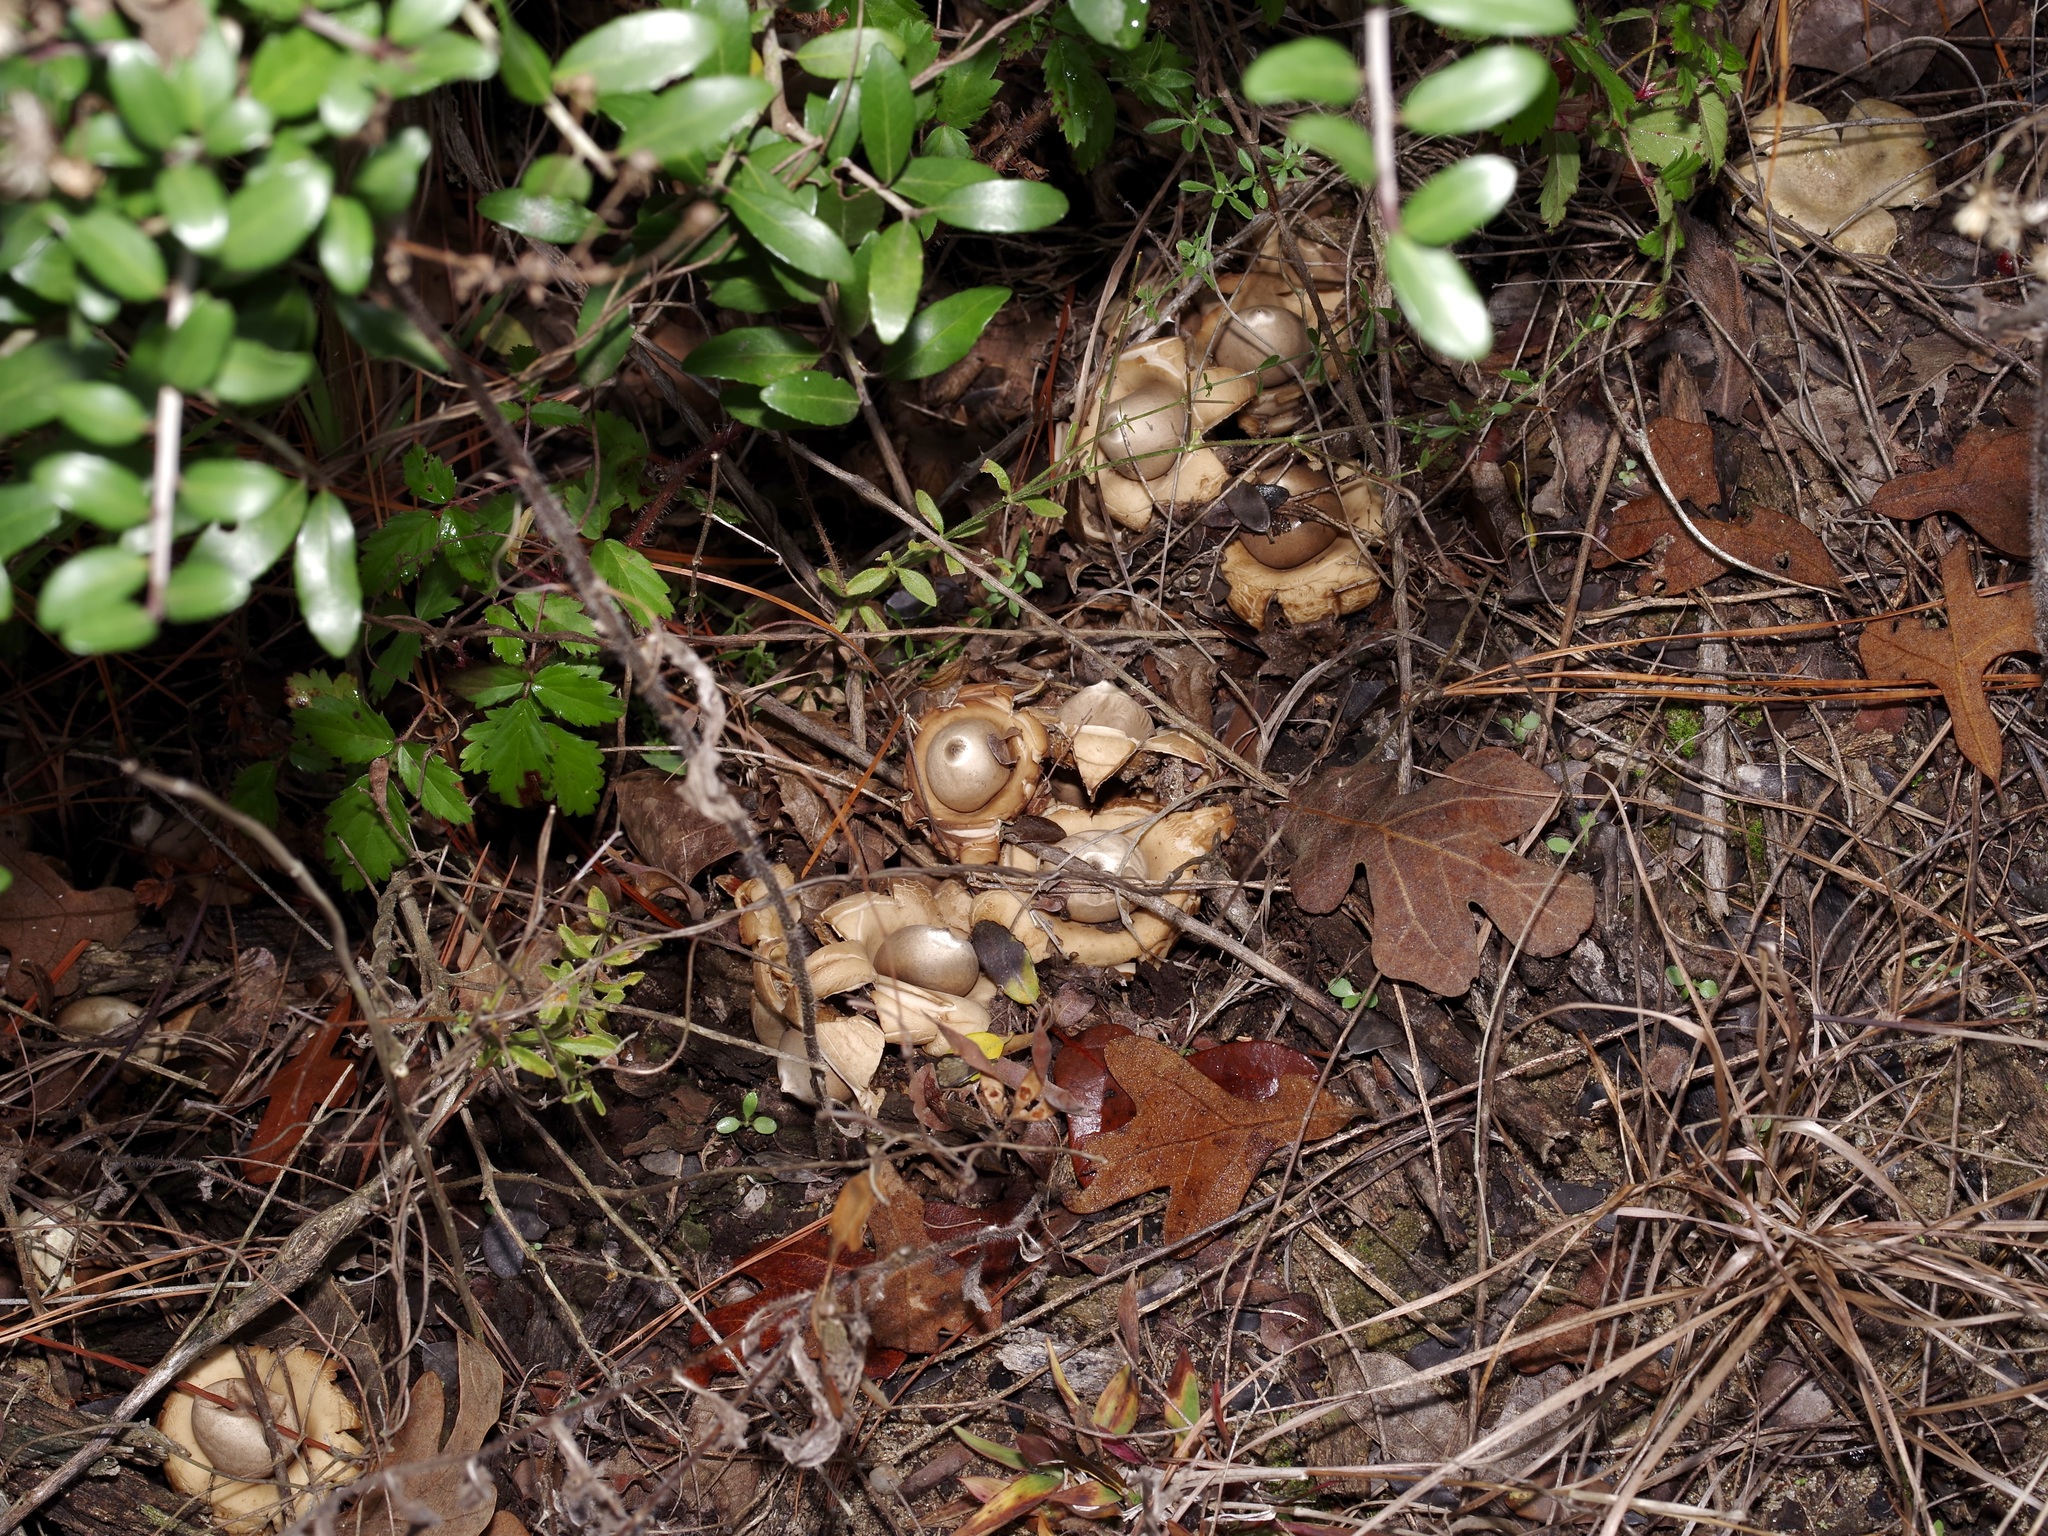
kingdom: Fungi
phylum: Basidiomycota
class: Agaricomycetes
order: Geastrales
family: Geastraceae
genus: Geastrum
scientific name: Geastrum saccatum
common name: Rounded earthstar
